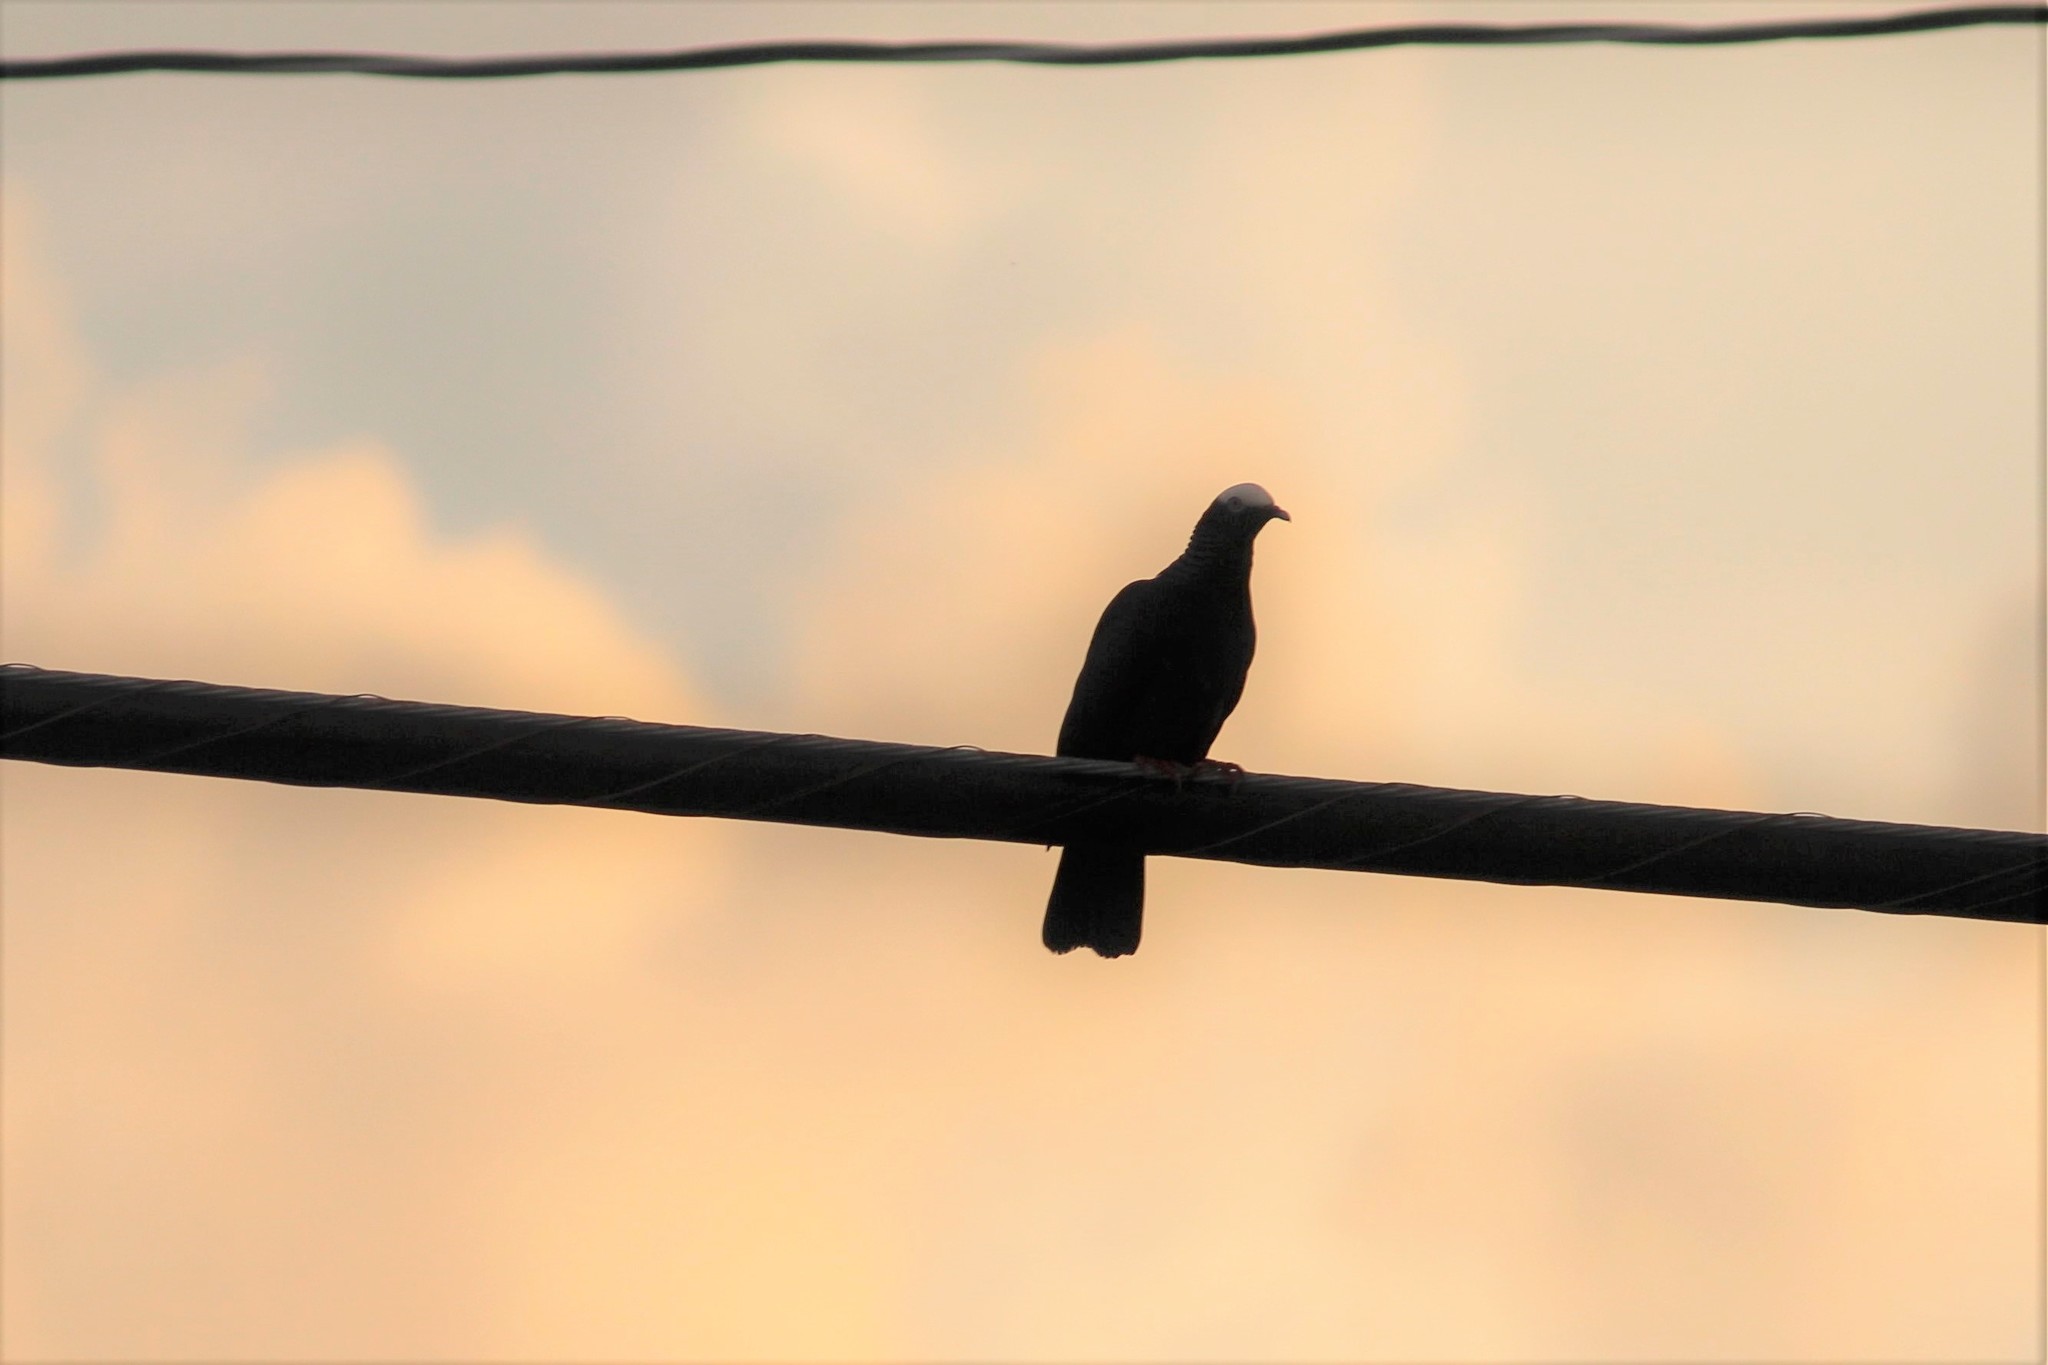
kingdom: Animalia
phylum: Chordata
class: Aves
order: Columbiformes
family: Columbidae
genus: Patagioenas
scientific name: Patagioenas leucocephala
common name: White-crowned pigeon
